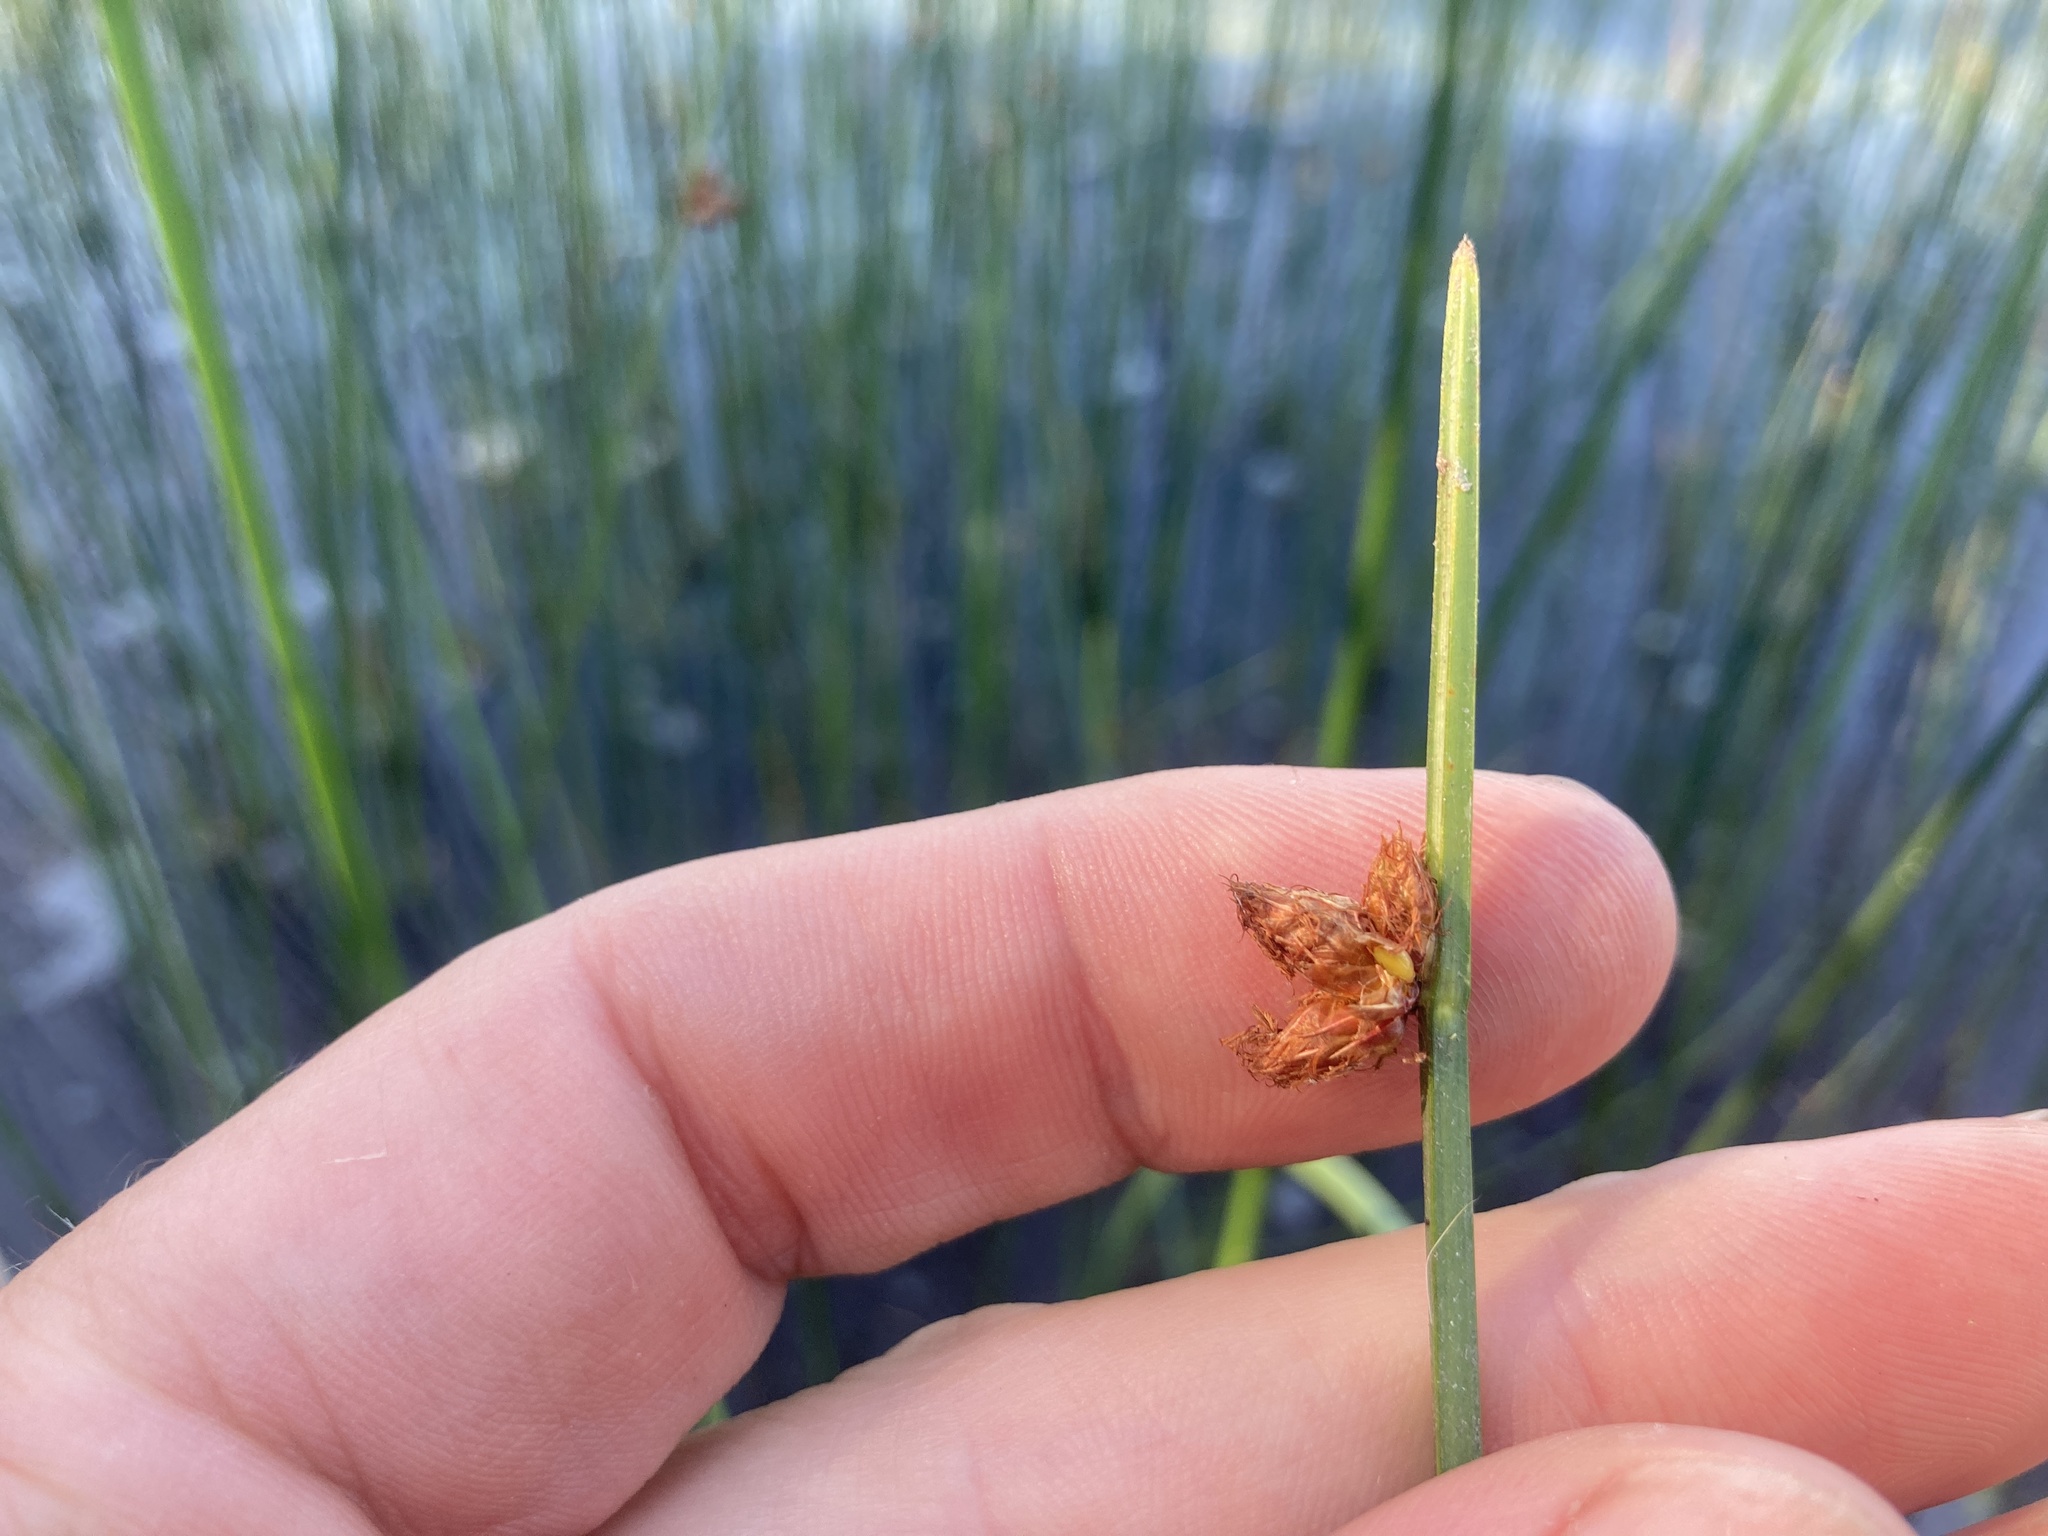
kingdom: Plantae
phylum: Tracheophyta
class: Liliopsida
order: Poales
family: Cyperaceae
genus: Schoenoplectus
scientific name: Schoenoplectus pungens
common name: Sharp club-rush
